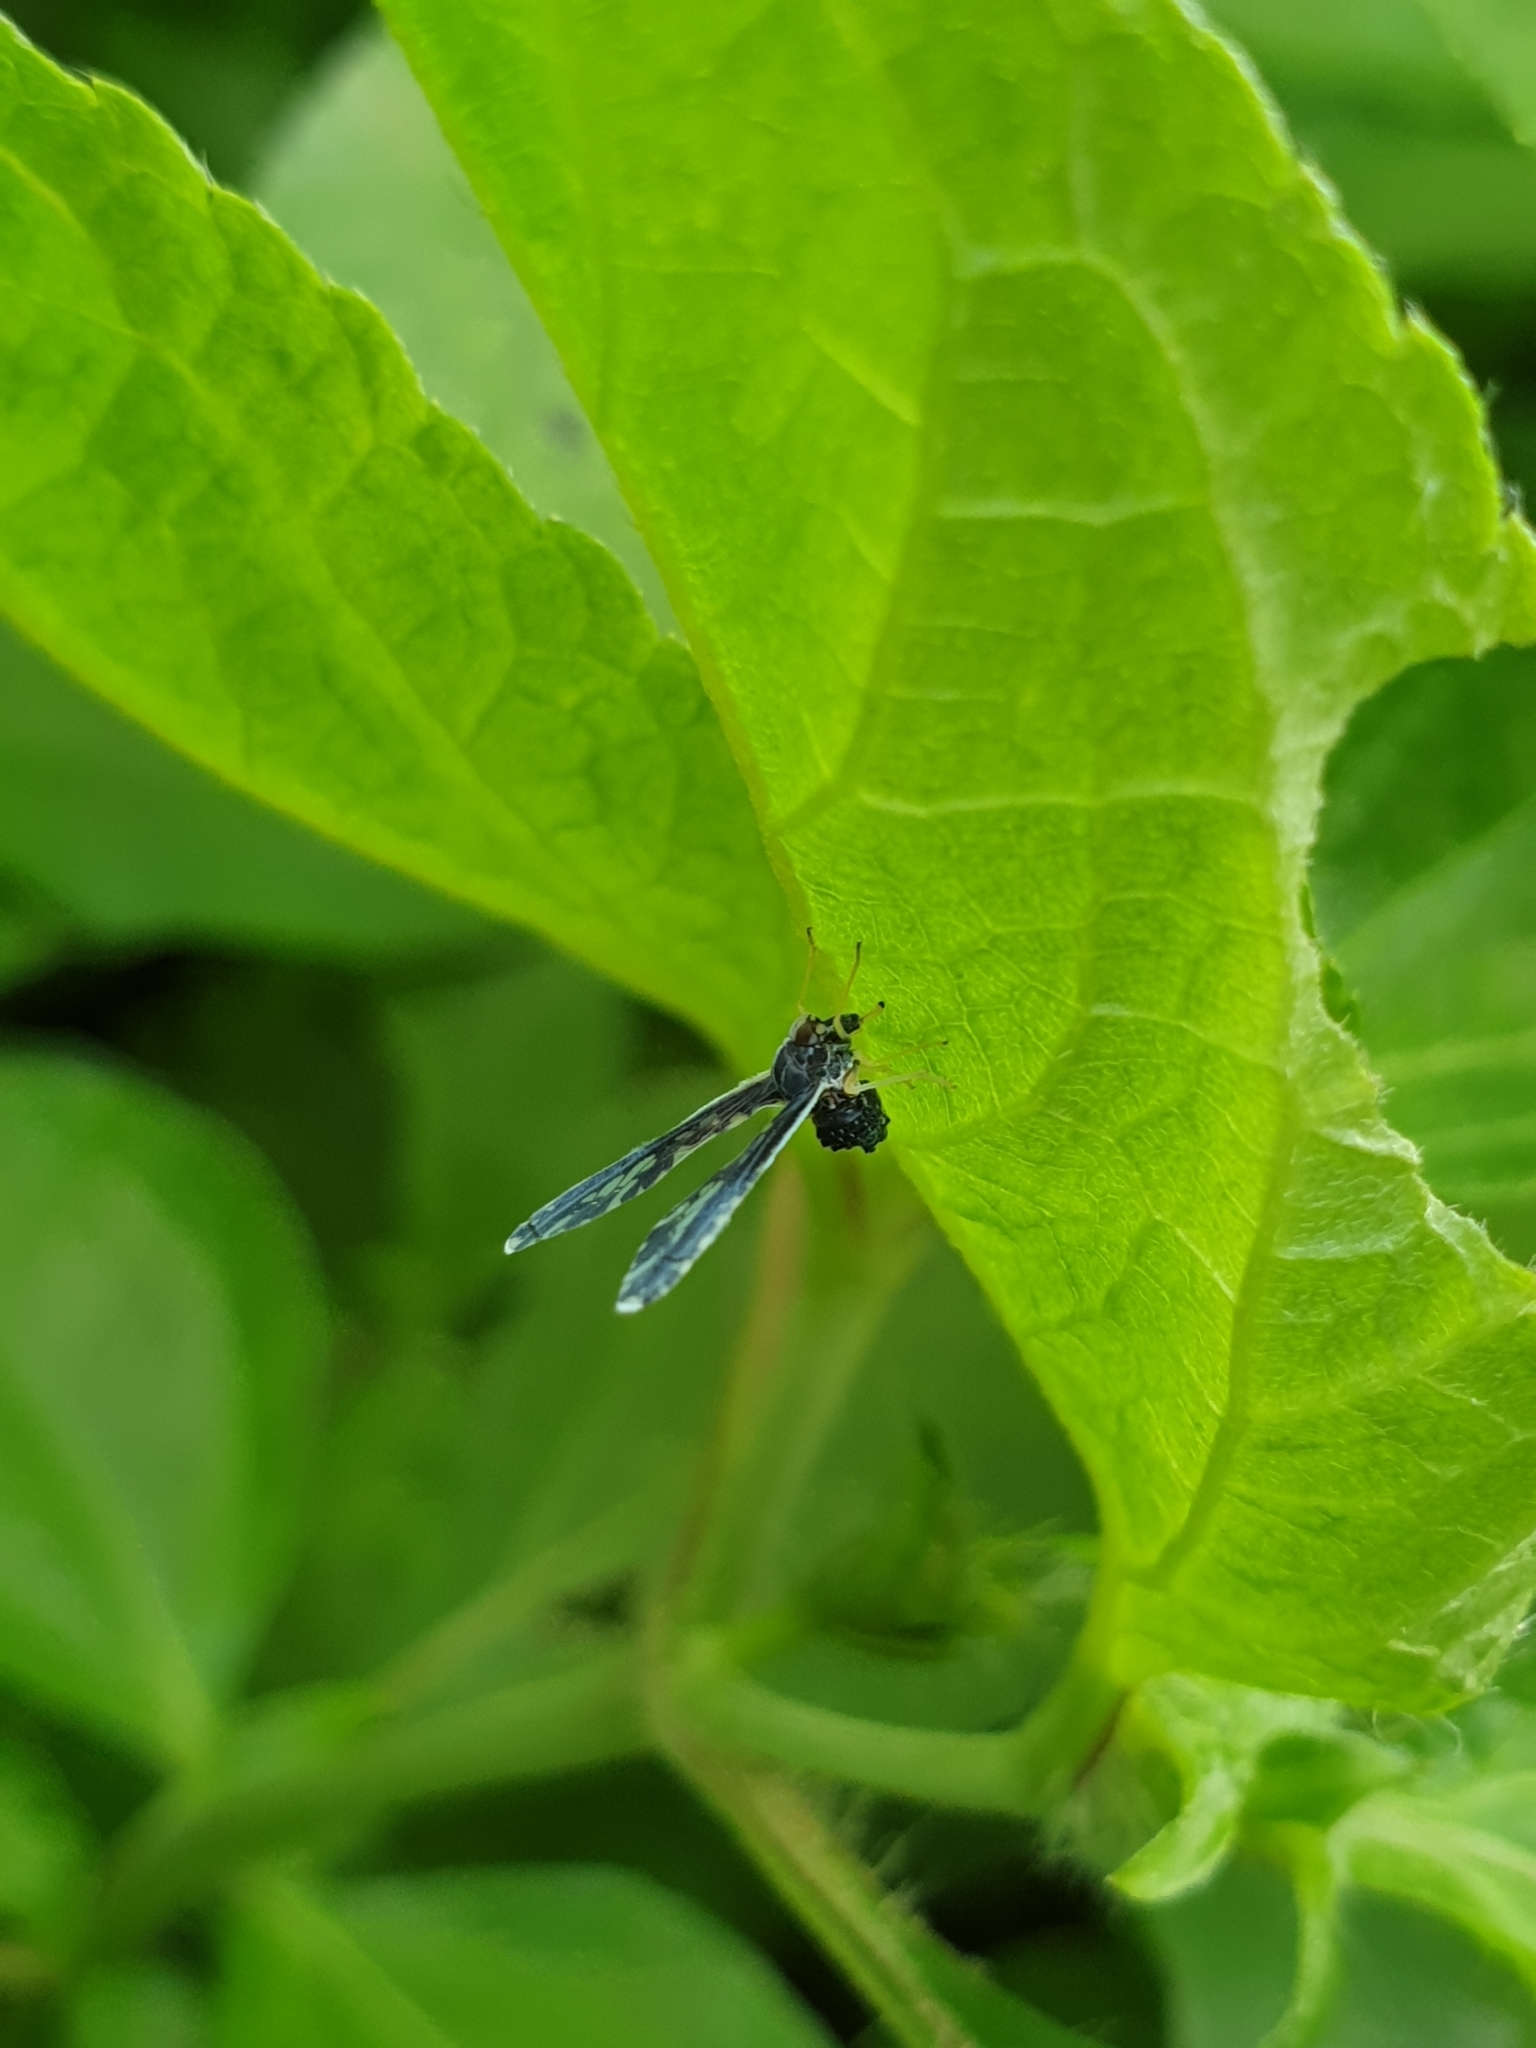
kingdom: Animalia
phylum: Arthropoda
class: Insecta
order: Hemiptera
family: Derbidae
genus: Proutista
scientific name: Proutista moesta
